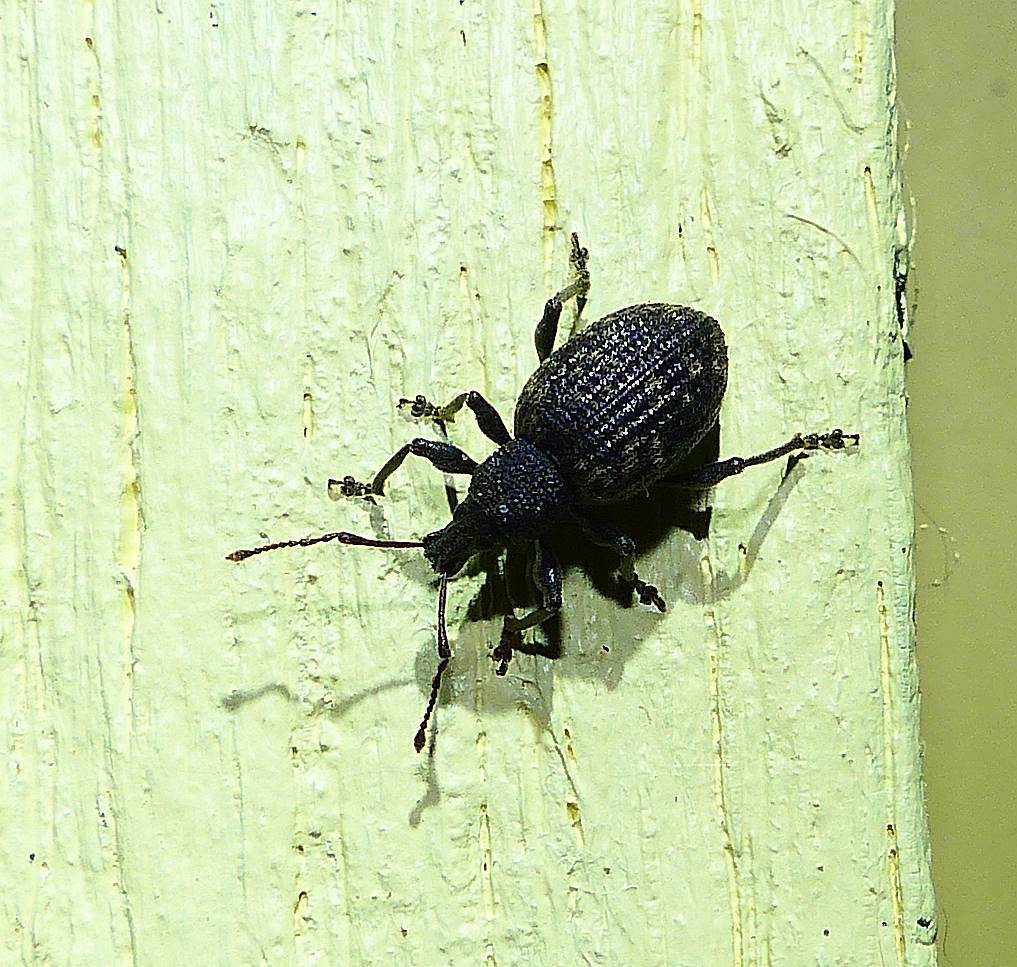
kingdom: Animalia
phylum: Arthropoda
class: Insecta
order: Coleoptera
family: Curculionidae
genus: Otiorhynchus
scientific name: Otiorhynchus sulcatus
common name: Black vine weevil
